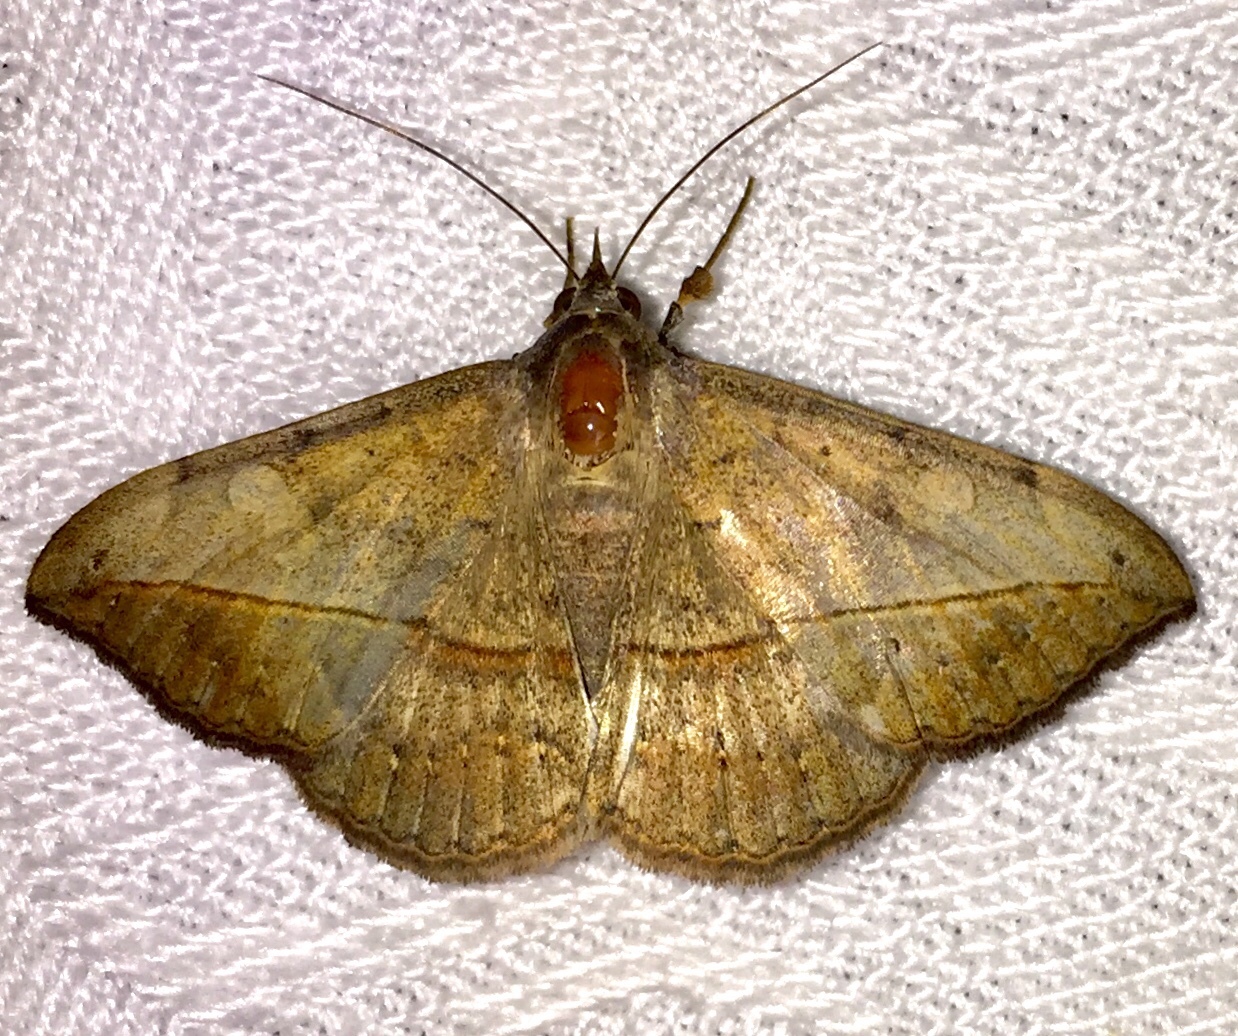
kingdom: Animalia
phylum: Arthropoda
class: Insecta
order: Lepidoptera
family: Erebidae
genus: Anticarsia
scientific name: Anticarsia gemmatalis
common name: Cutworm moth
